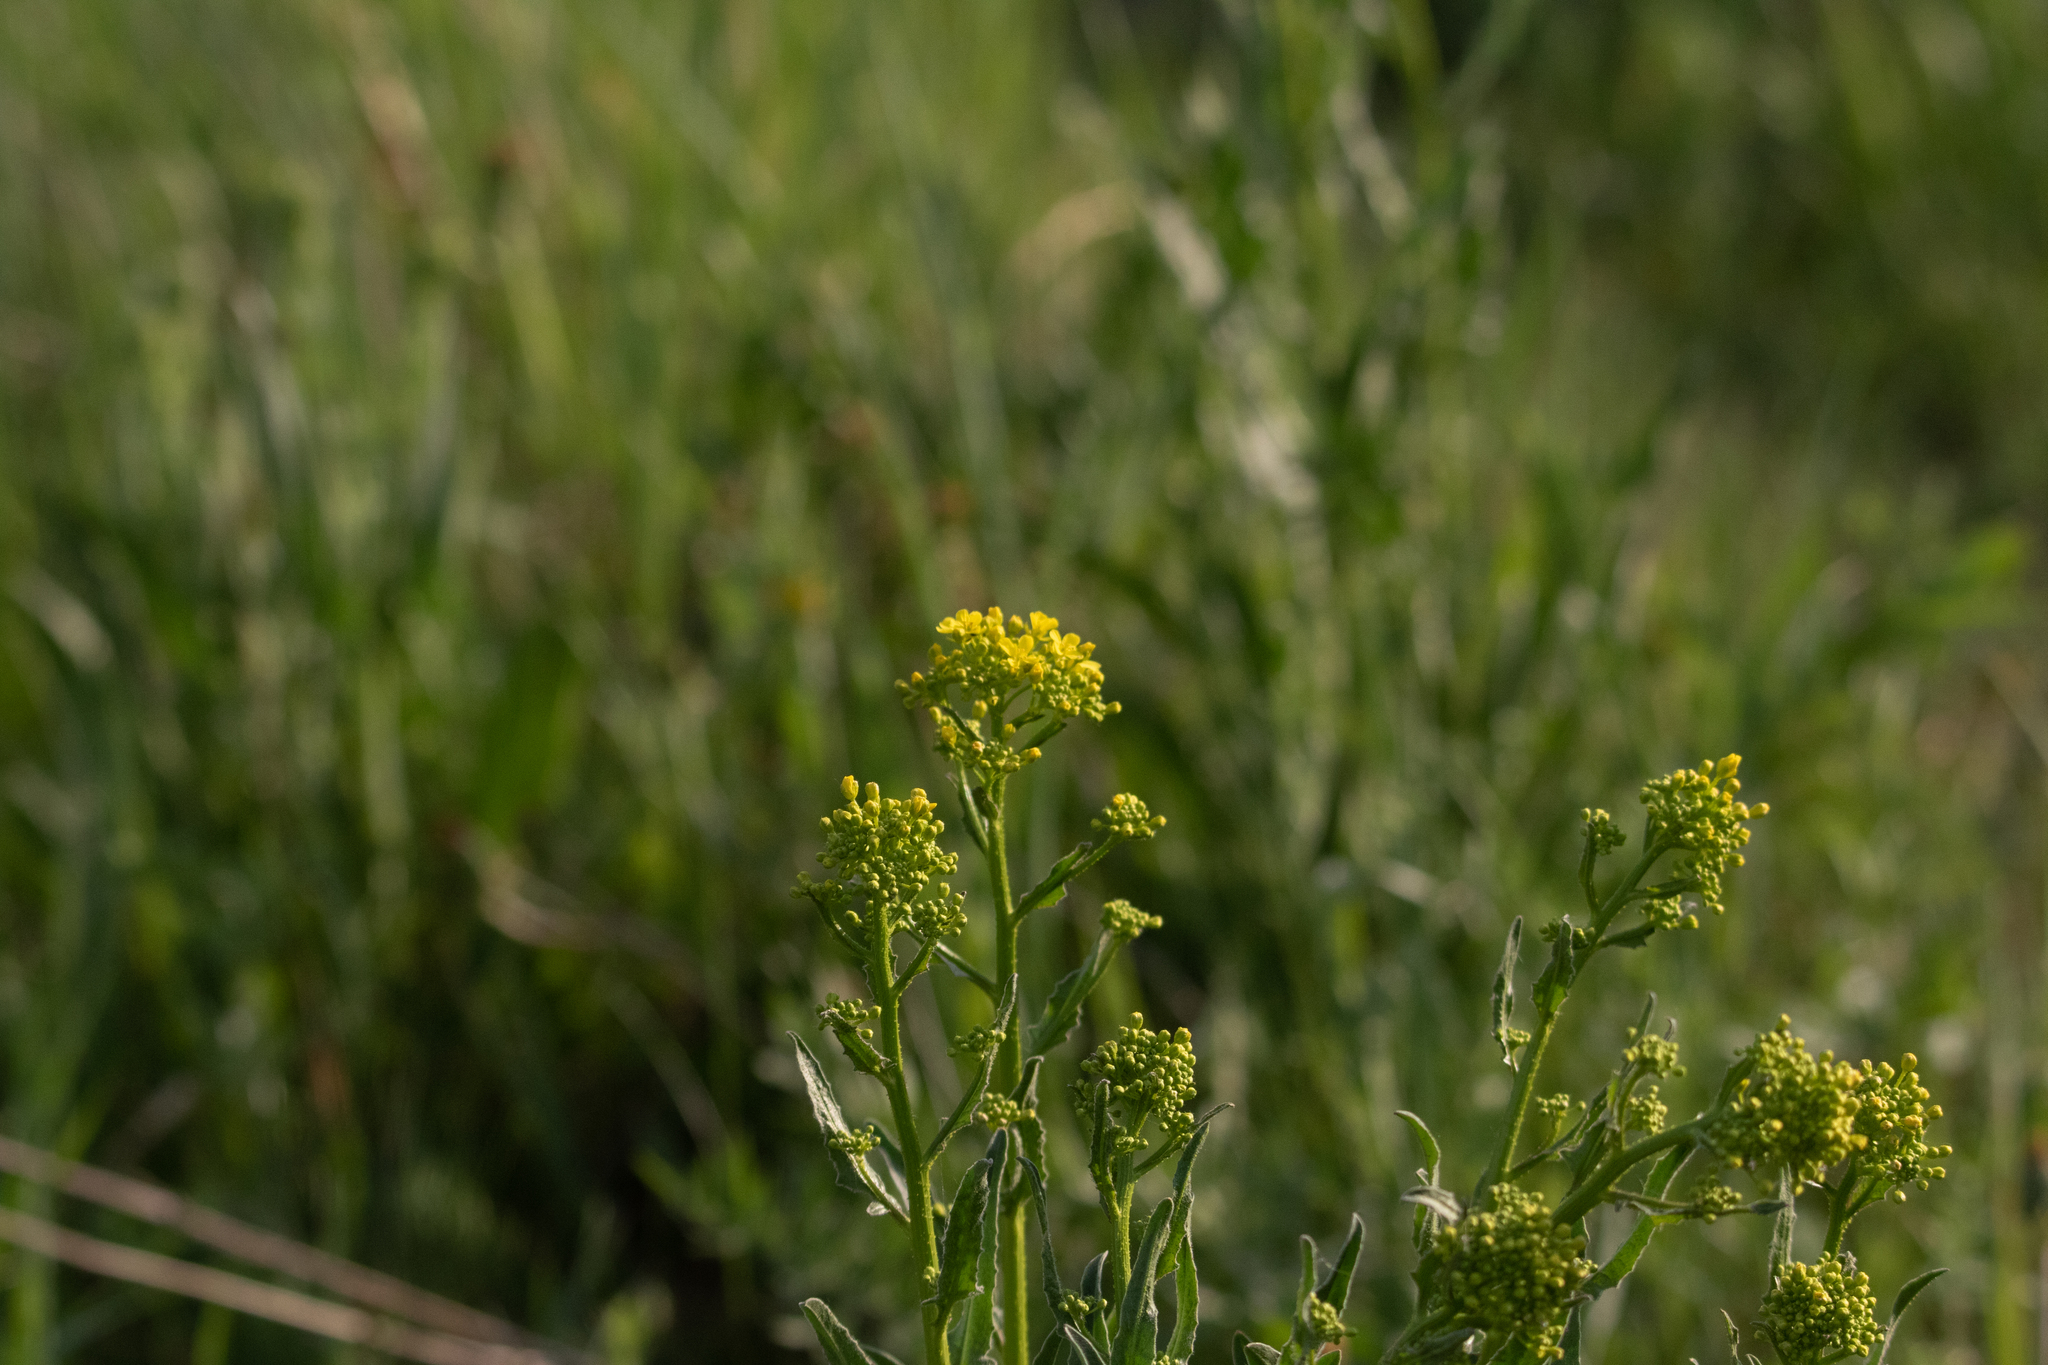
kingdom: Plantae
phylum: Tracheophyta
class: Magnoliopsida
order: Brassicales
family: Brassicaceae
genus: Bunias
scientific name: Bunias orientalis
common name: Warty-cabbage
